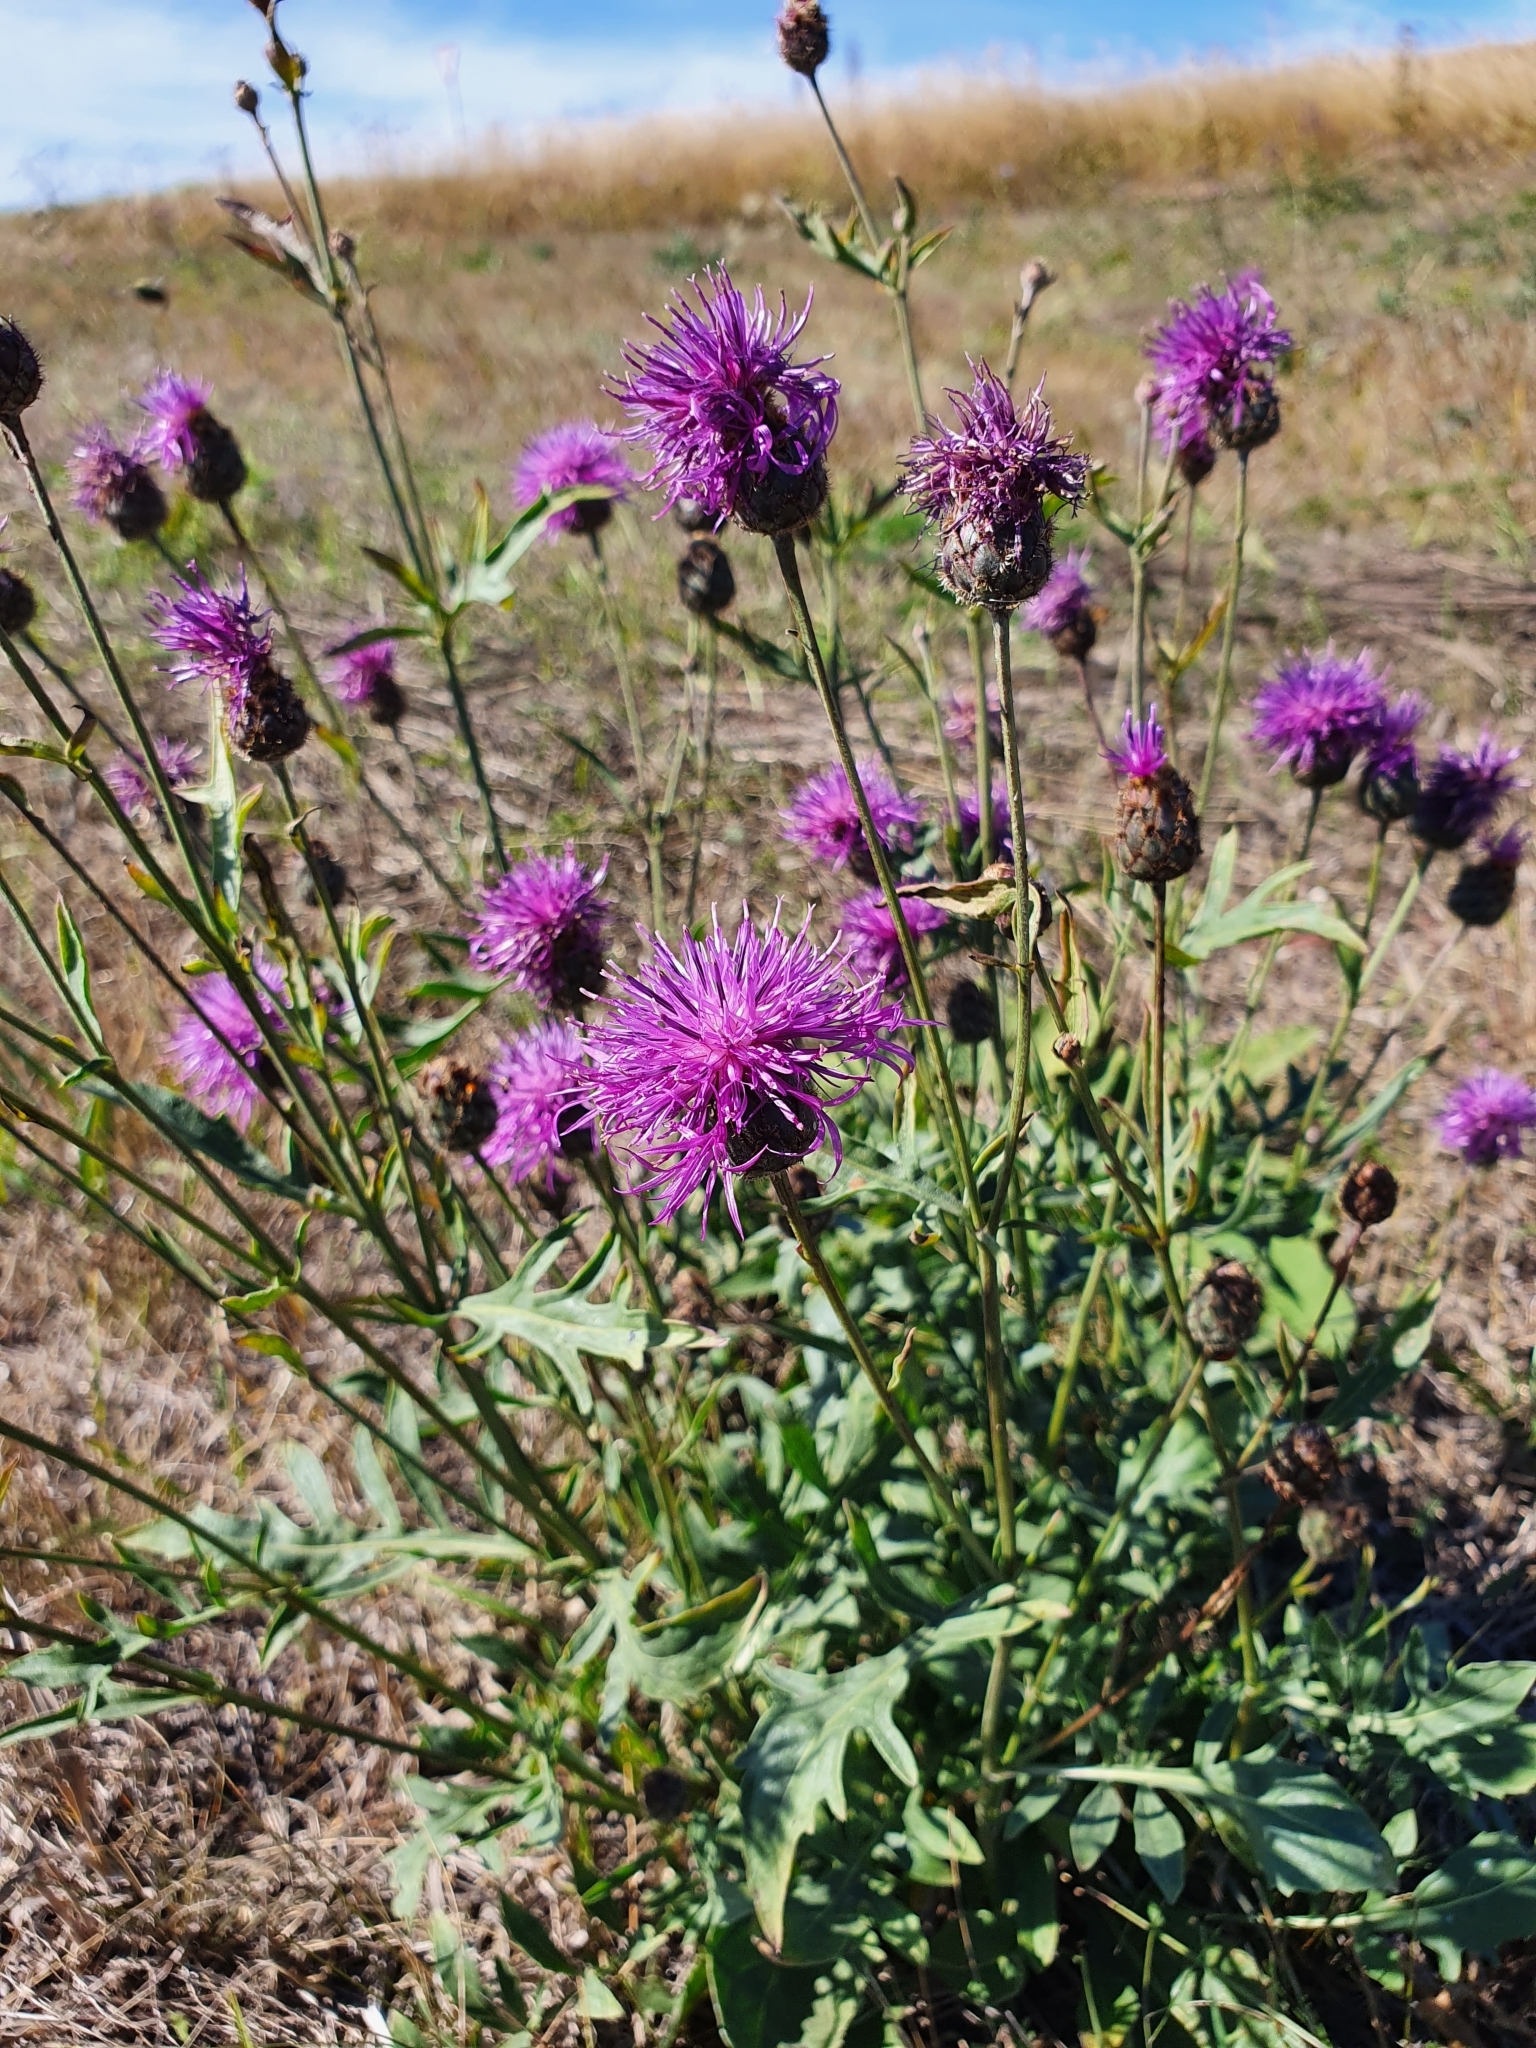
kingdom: Plantae
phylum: Tracheophyta
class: Magnoliopsida
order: Asterales
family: Asteraceae
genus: Centaurea
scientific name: Centaurea scabiosa
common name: Greater knapweed
